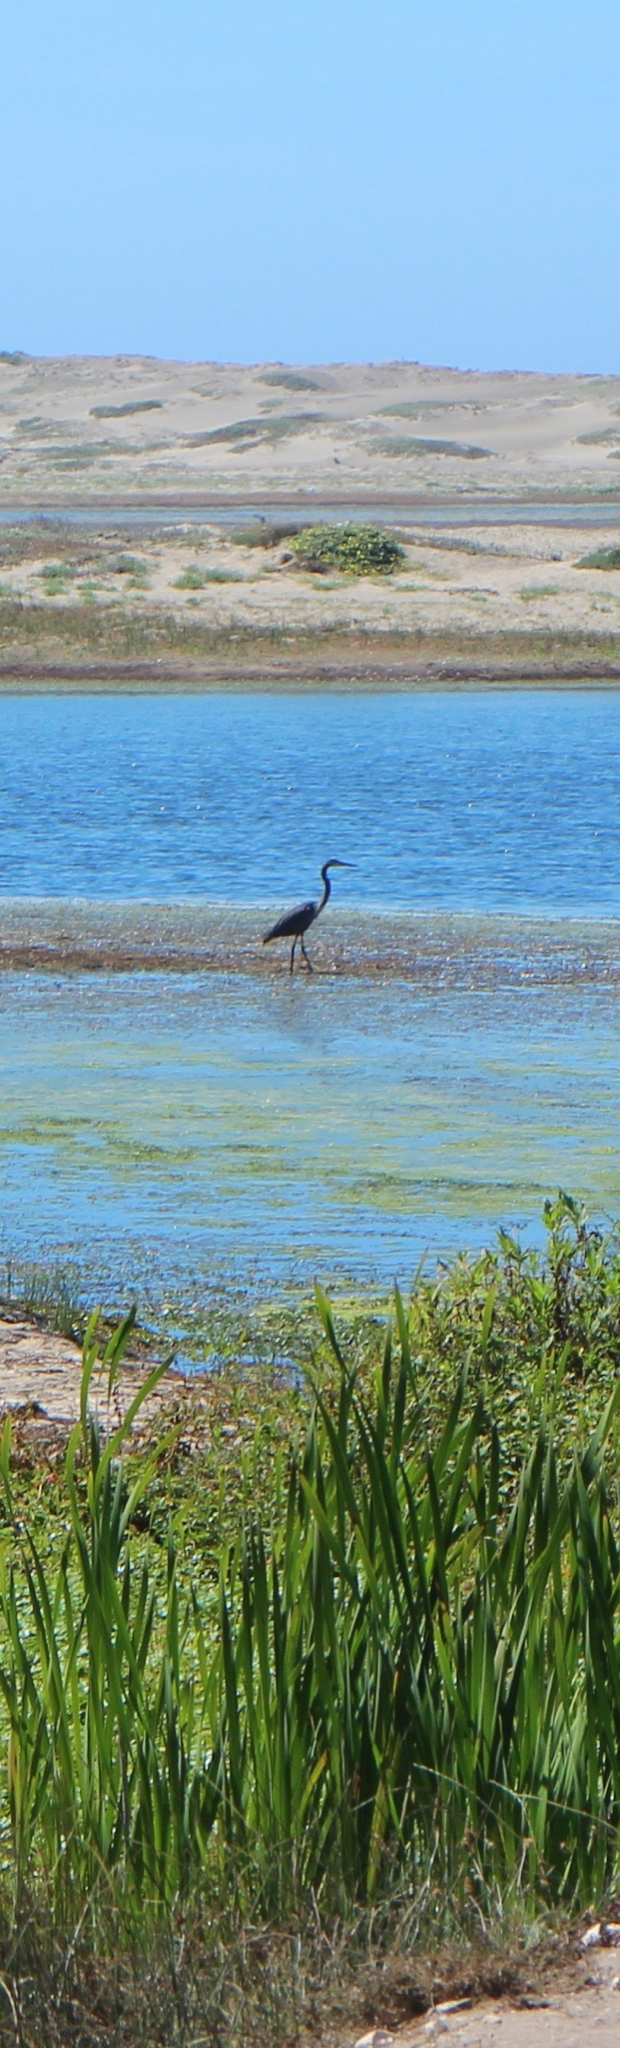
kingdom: Animalia
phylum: Chordata
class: Aves
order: Pelecaniformes
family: Ardeidae
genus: Ardea
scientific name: Ardea herodias
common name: Great blue heron
